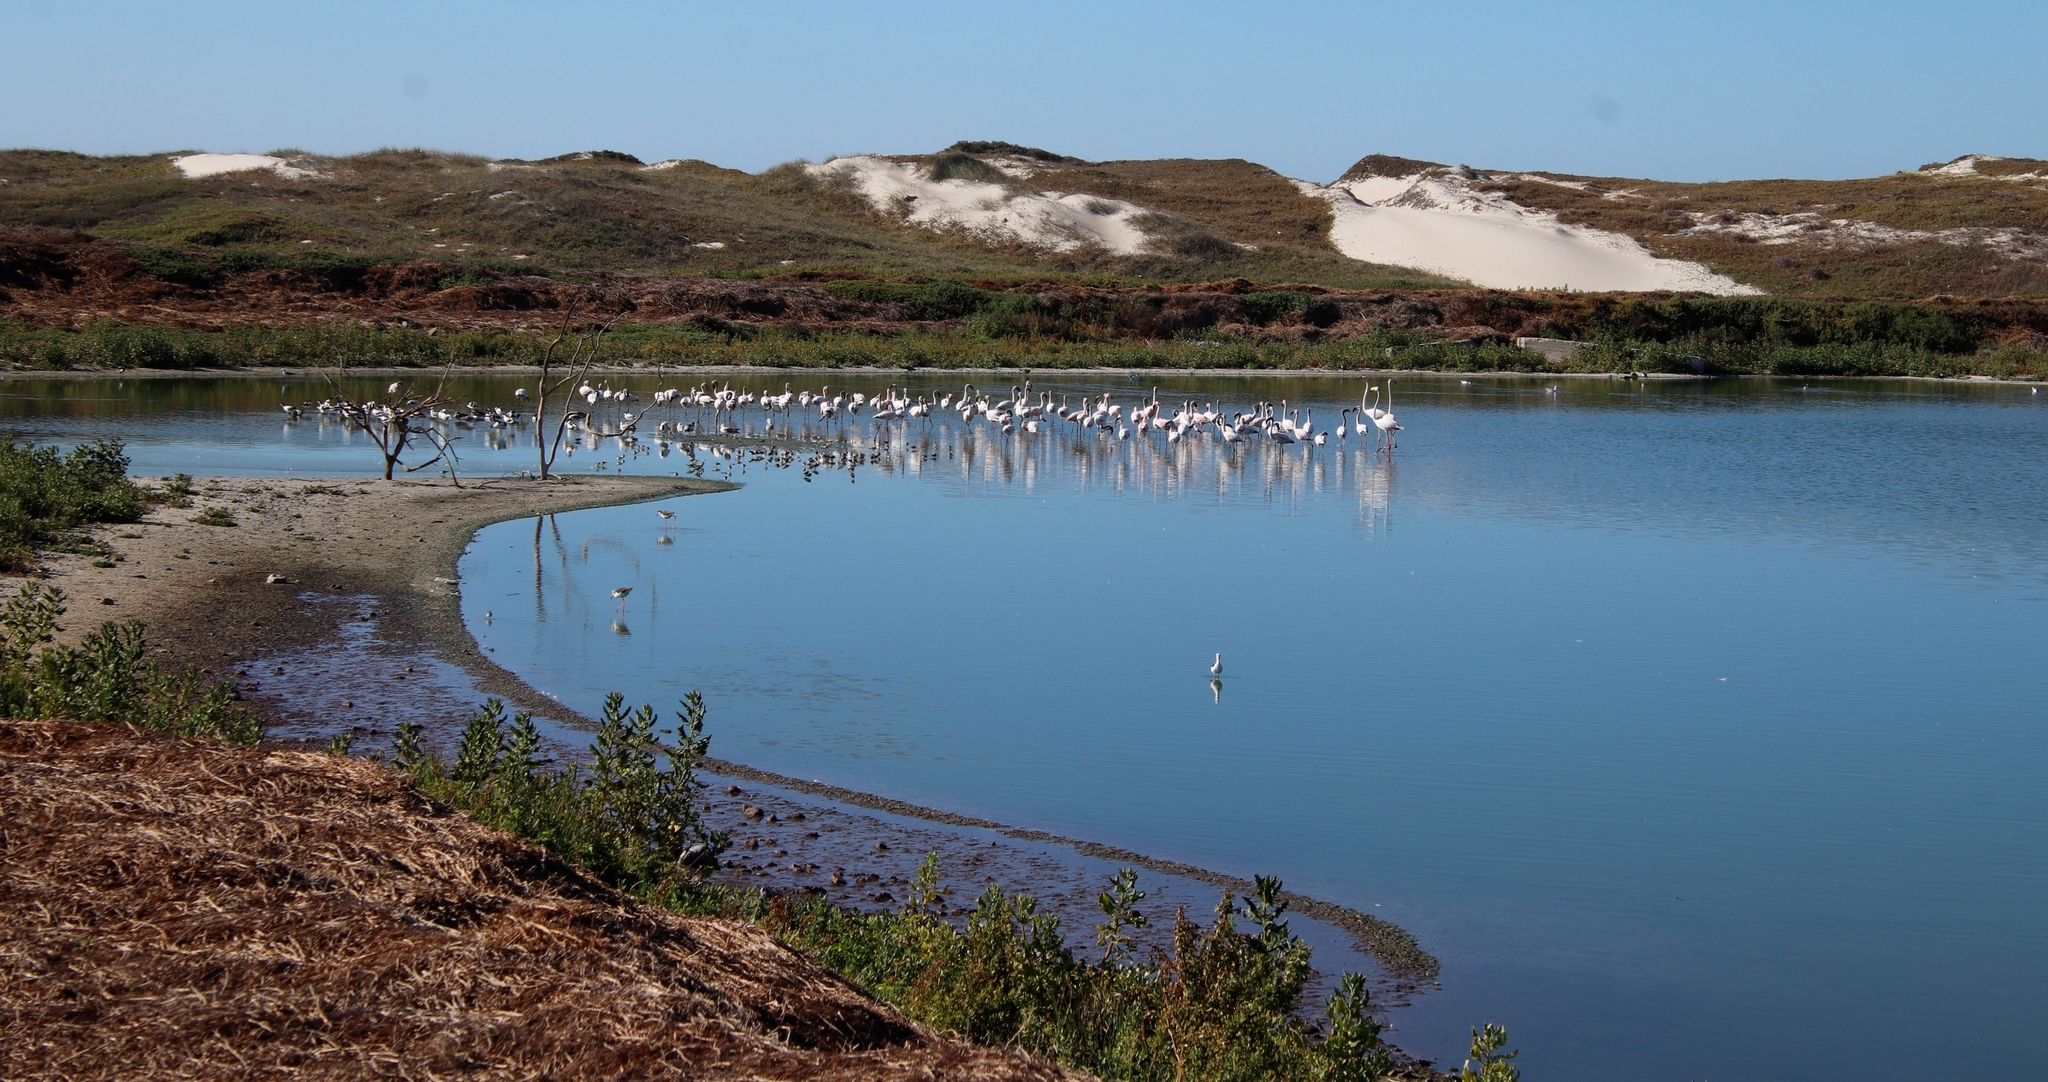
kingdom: Animalia
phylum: Chordata
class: Aves
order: Phoenicopteriformes
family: Phoenicopteridae
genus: Phoenicopterus
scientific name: Phoenicopterus roseus
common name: Greater flamingo
